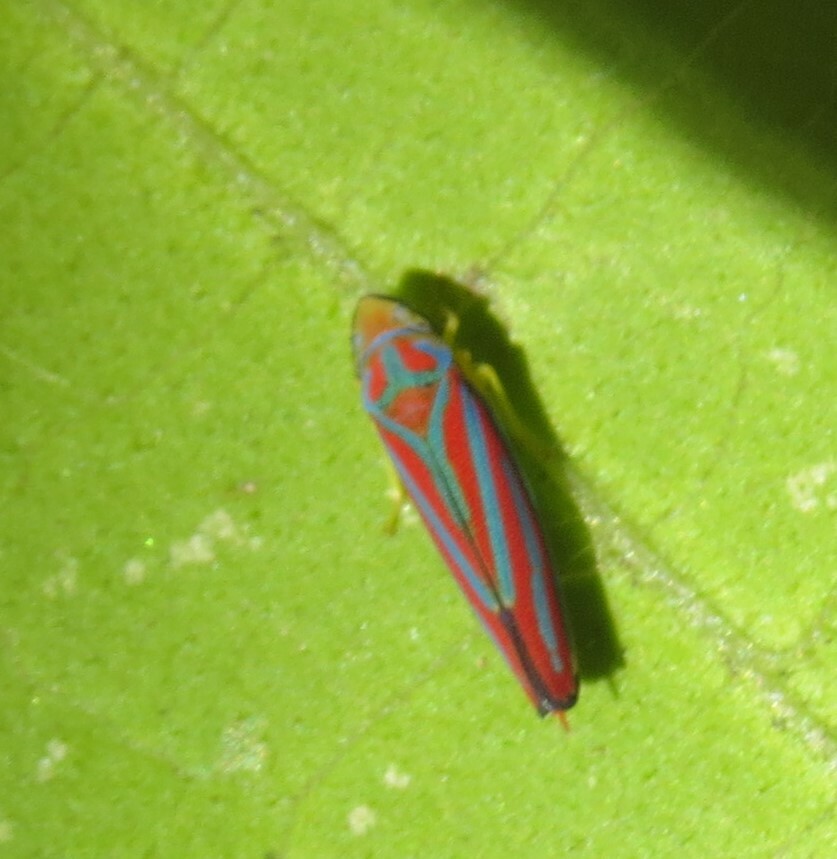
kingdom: Animalia
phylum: Arthropoda
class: Insecta
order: Hemiptera
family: Cicadellidae
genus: Graphocephala
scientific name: Graphocephala coccinea
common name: Candy-striped leafhopper
